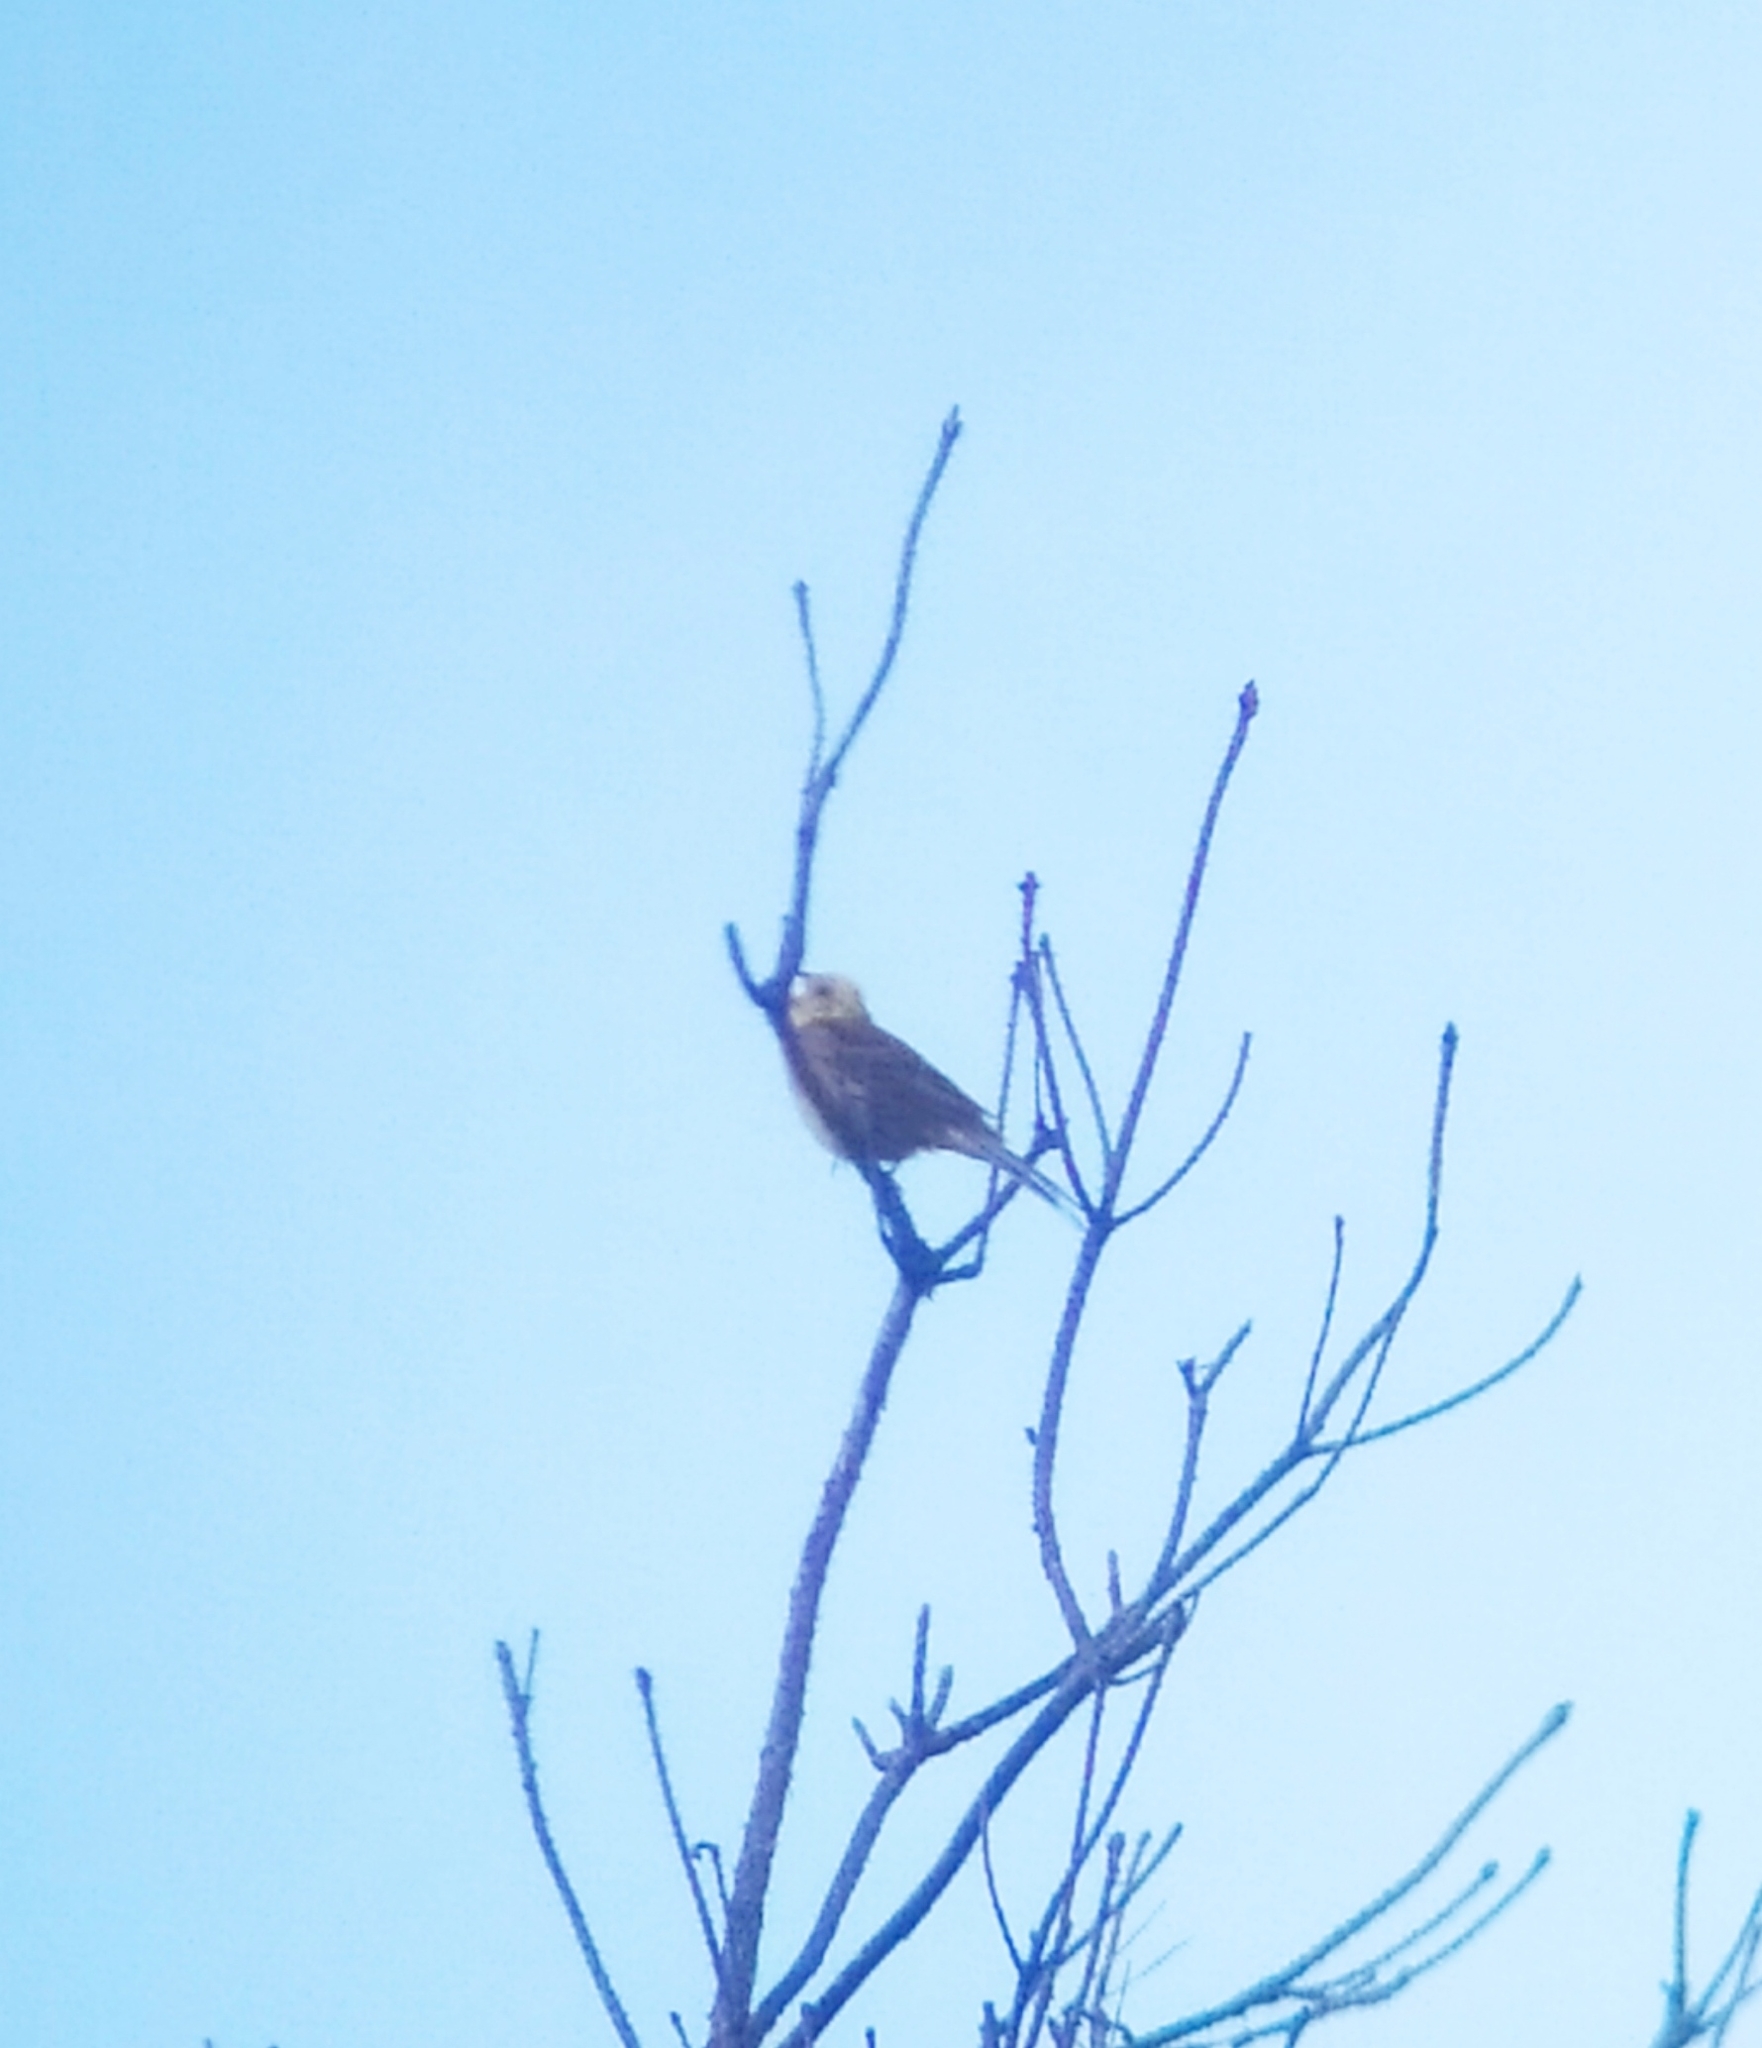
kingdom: Animalia
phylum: Chordata
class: Aves
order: Passeriformes
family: Emberizidae
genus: Emberiza
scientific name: Emberiza citrinella
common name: Yellowhammer
